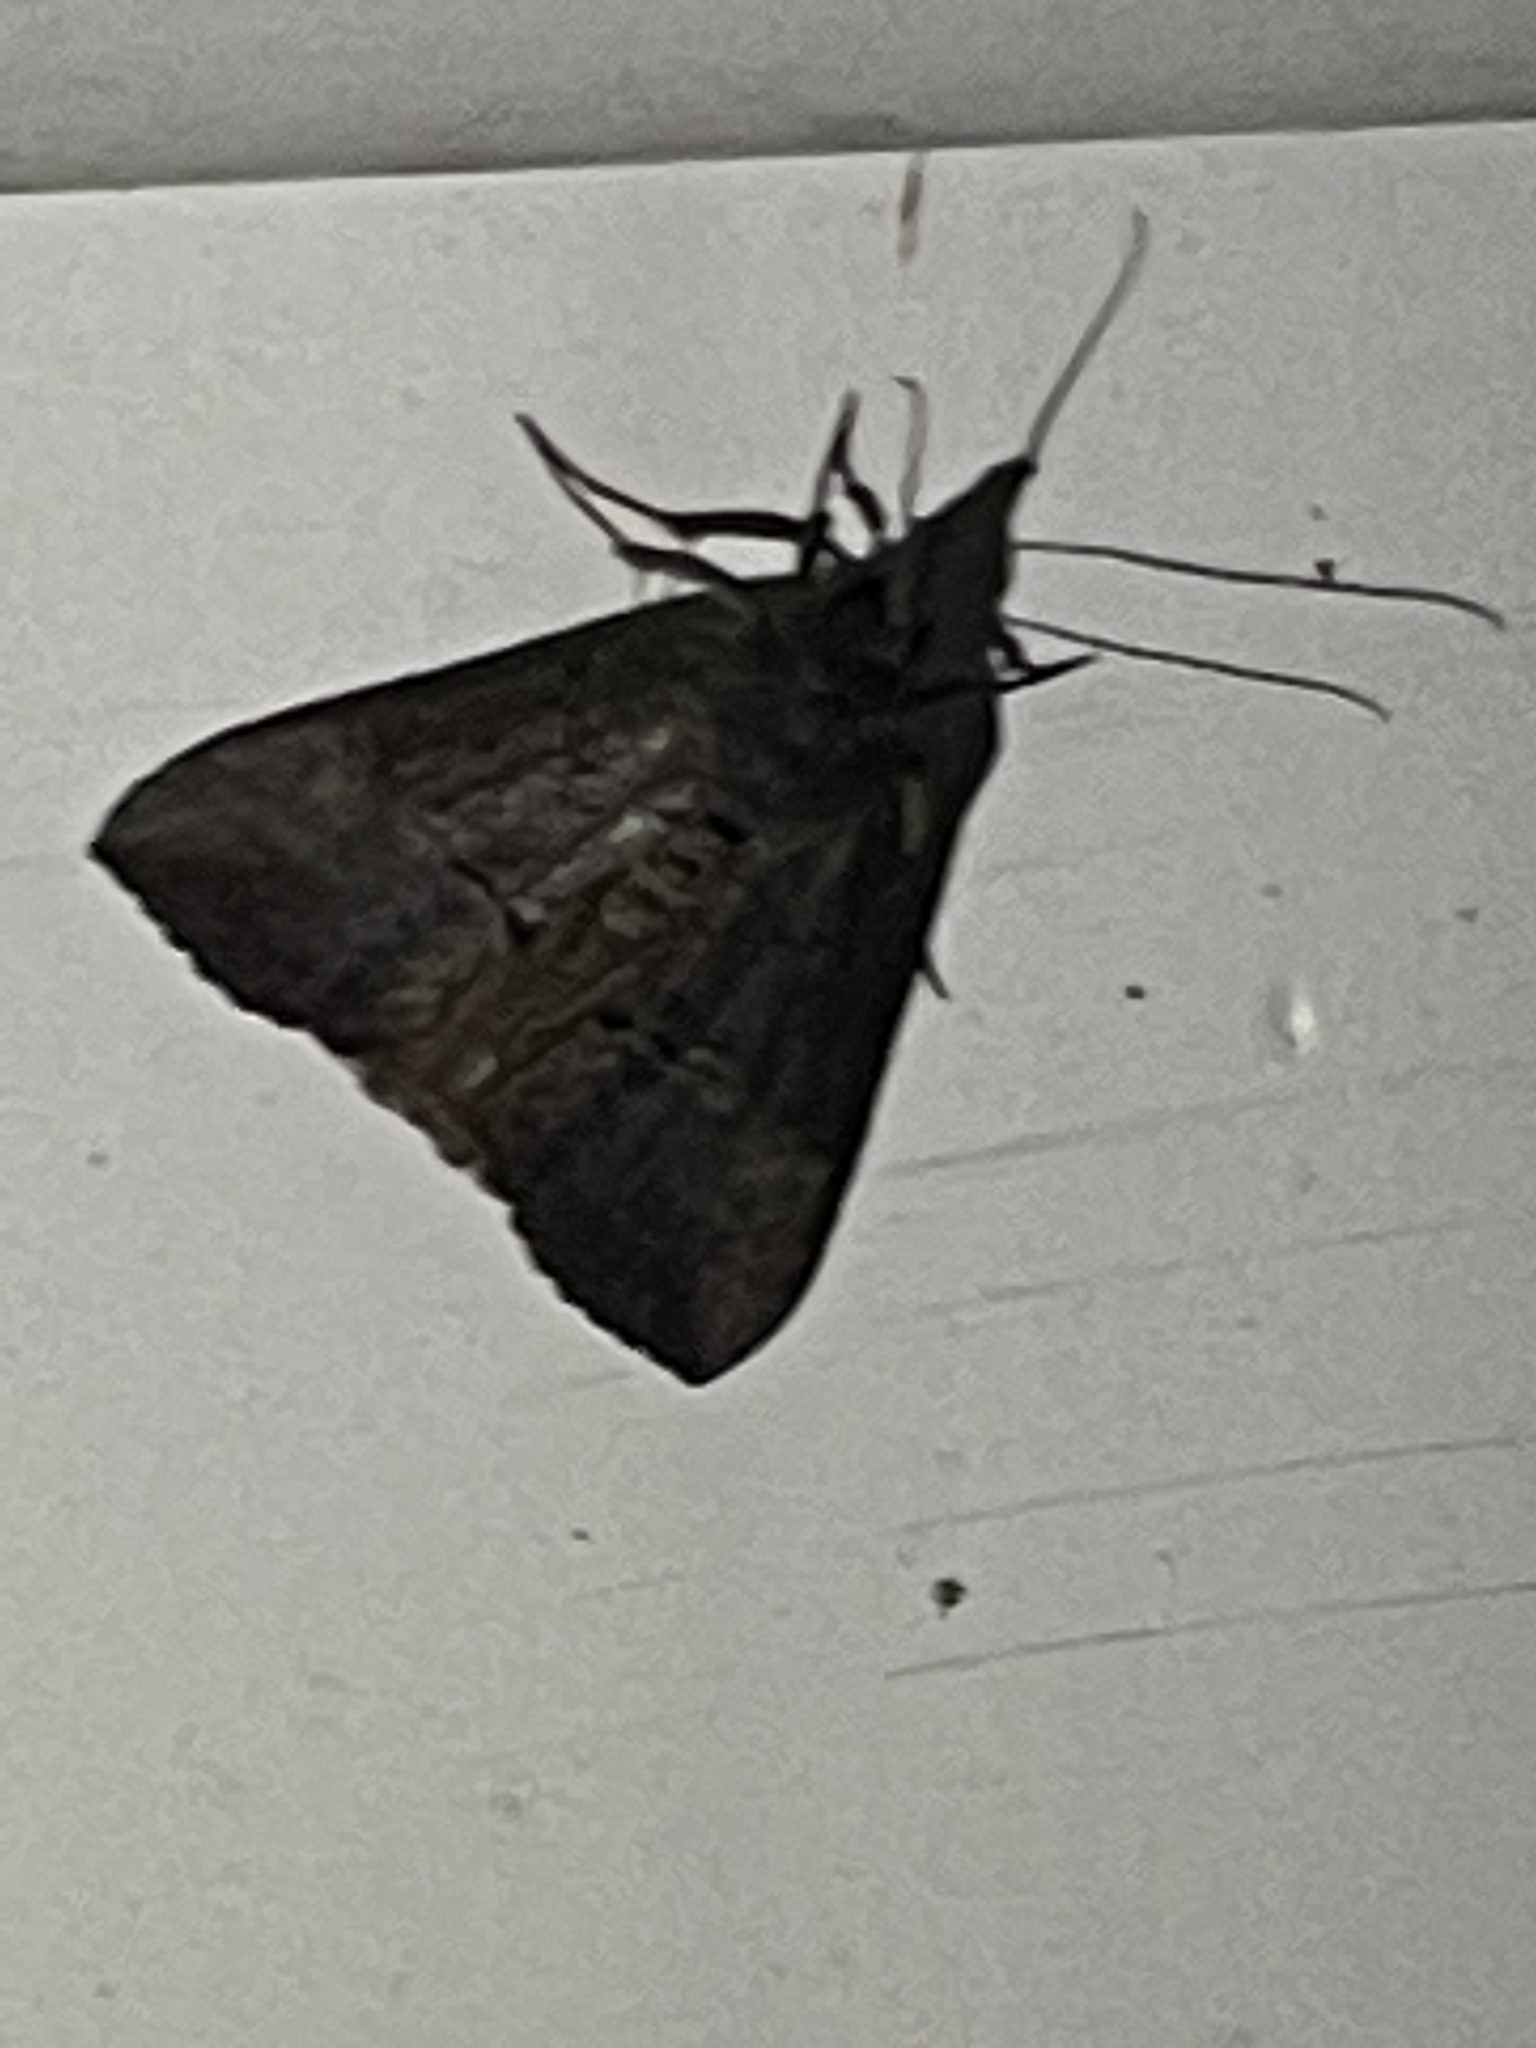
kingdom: Animalia
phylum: Arthropoda
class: Insecta
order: Lepidoptera
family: Erebidae
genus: Hypena
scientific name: Hypena scabra
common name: Green cloverworm
